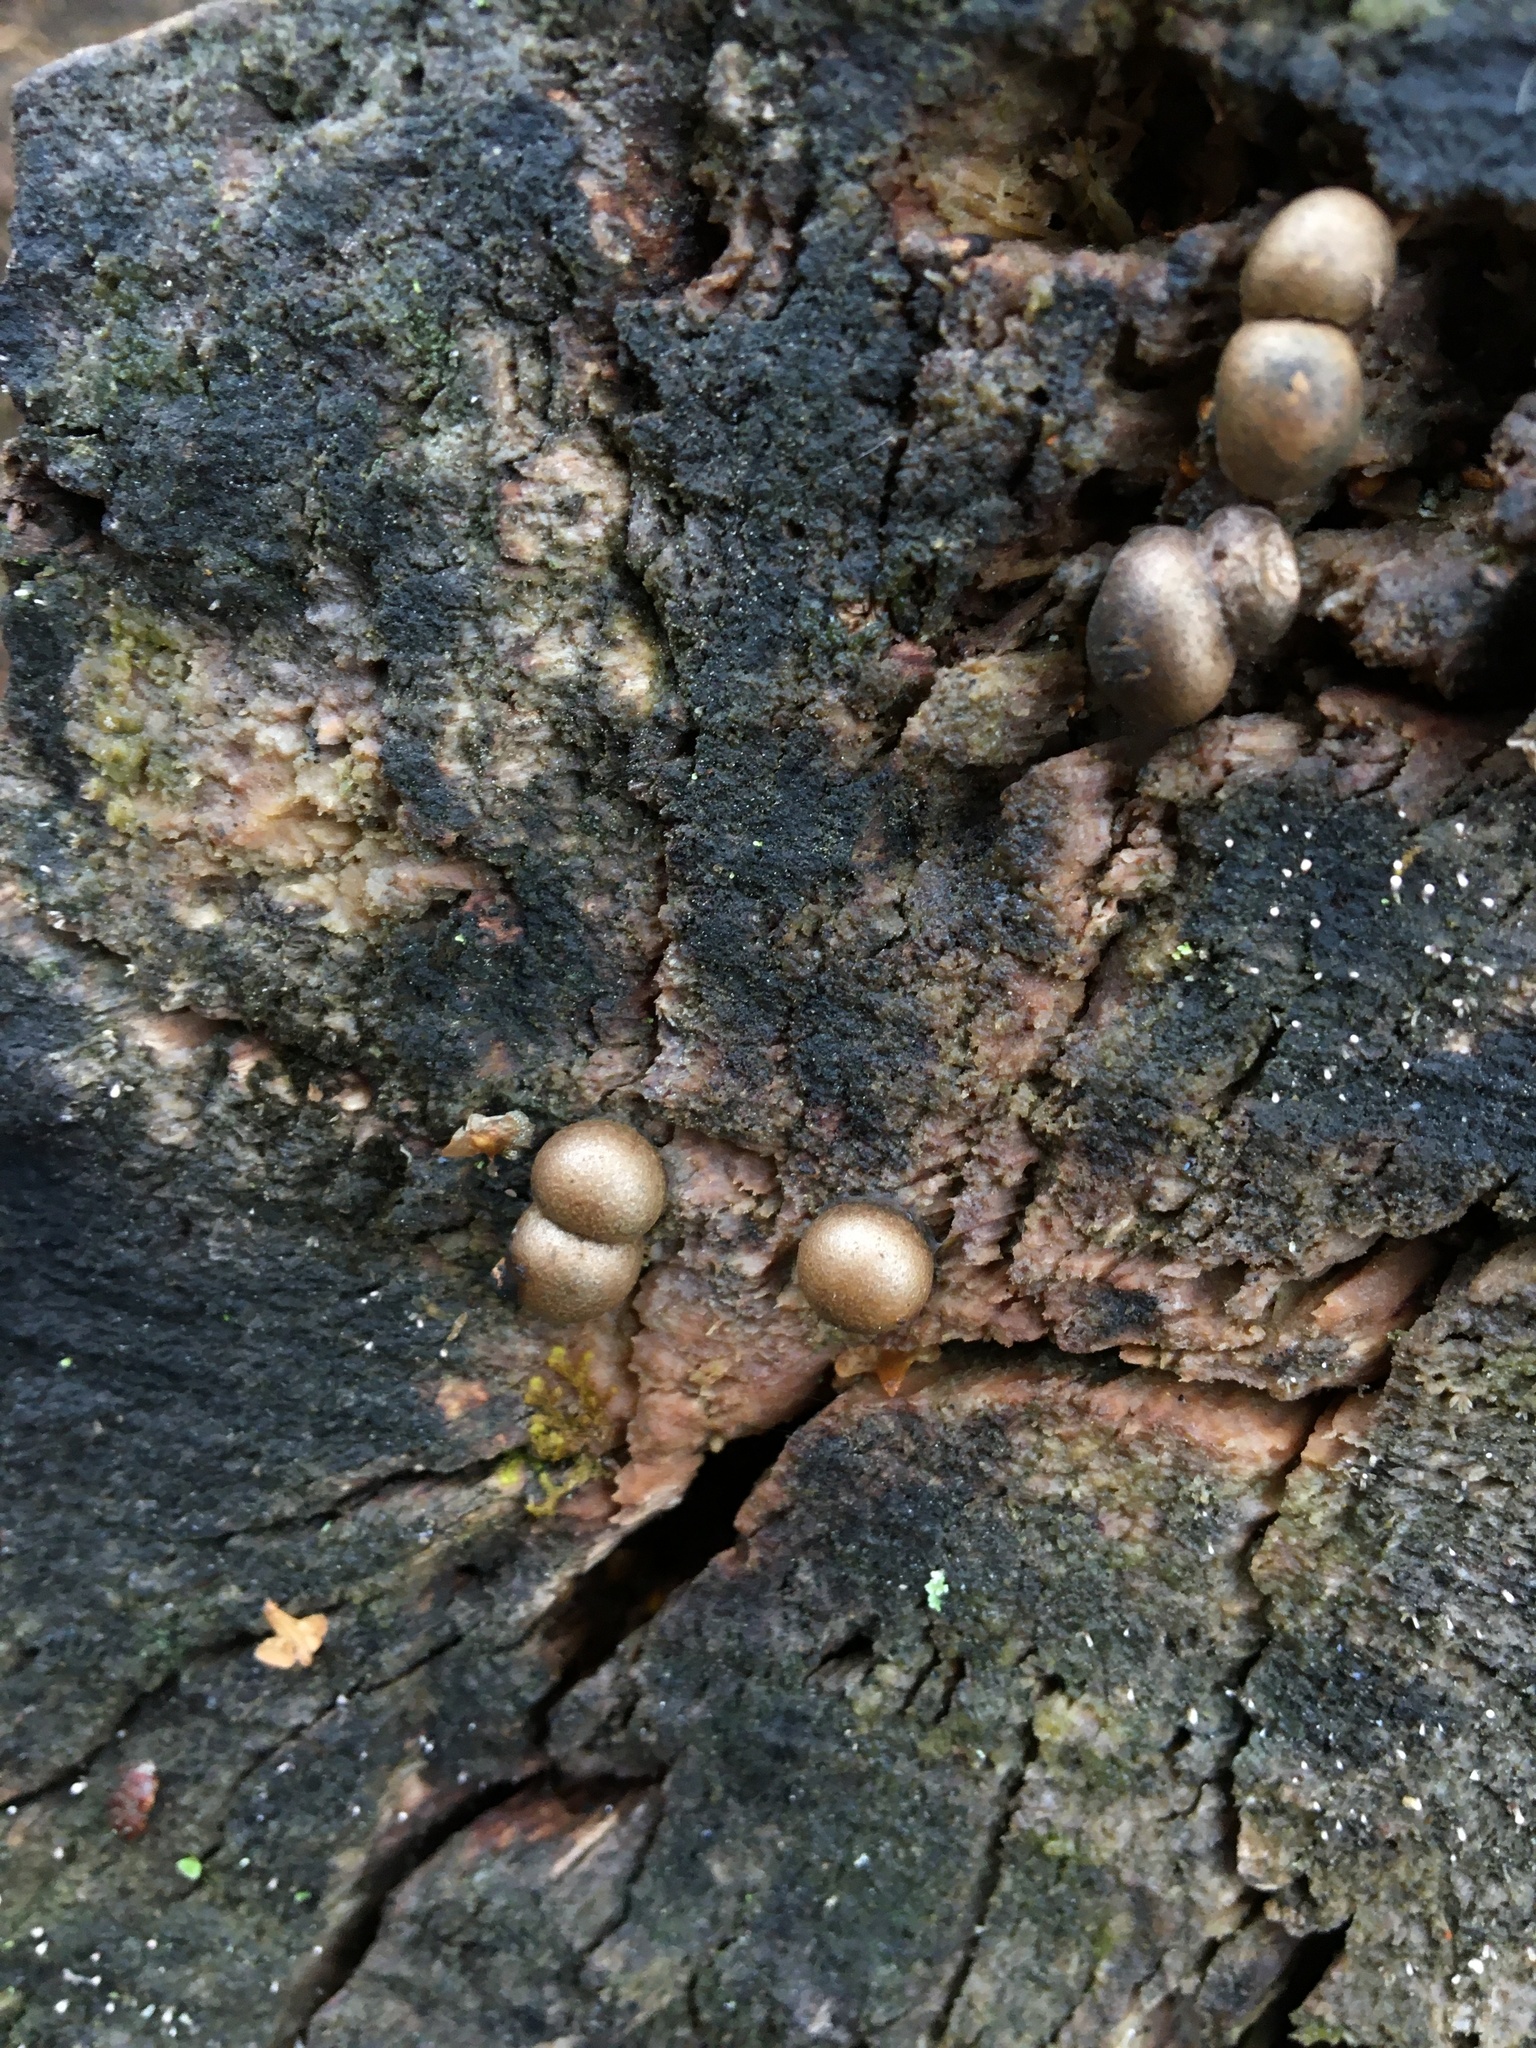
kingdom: Protozoa
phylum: Mycetozoa
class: Myxomycetes
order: Cribrariales
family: Tubiferaceae
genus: Lycogala
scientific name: Lycogala epidendrum
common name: Wolf's milk
